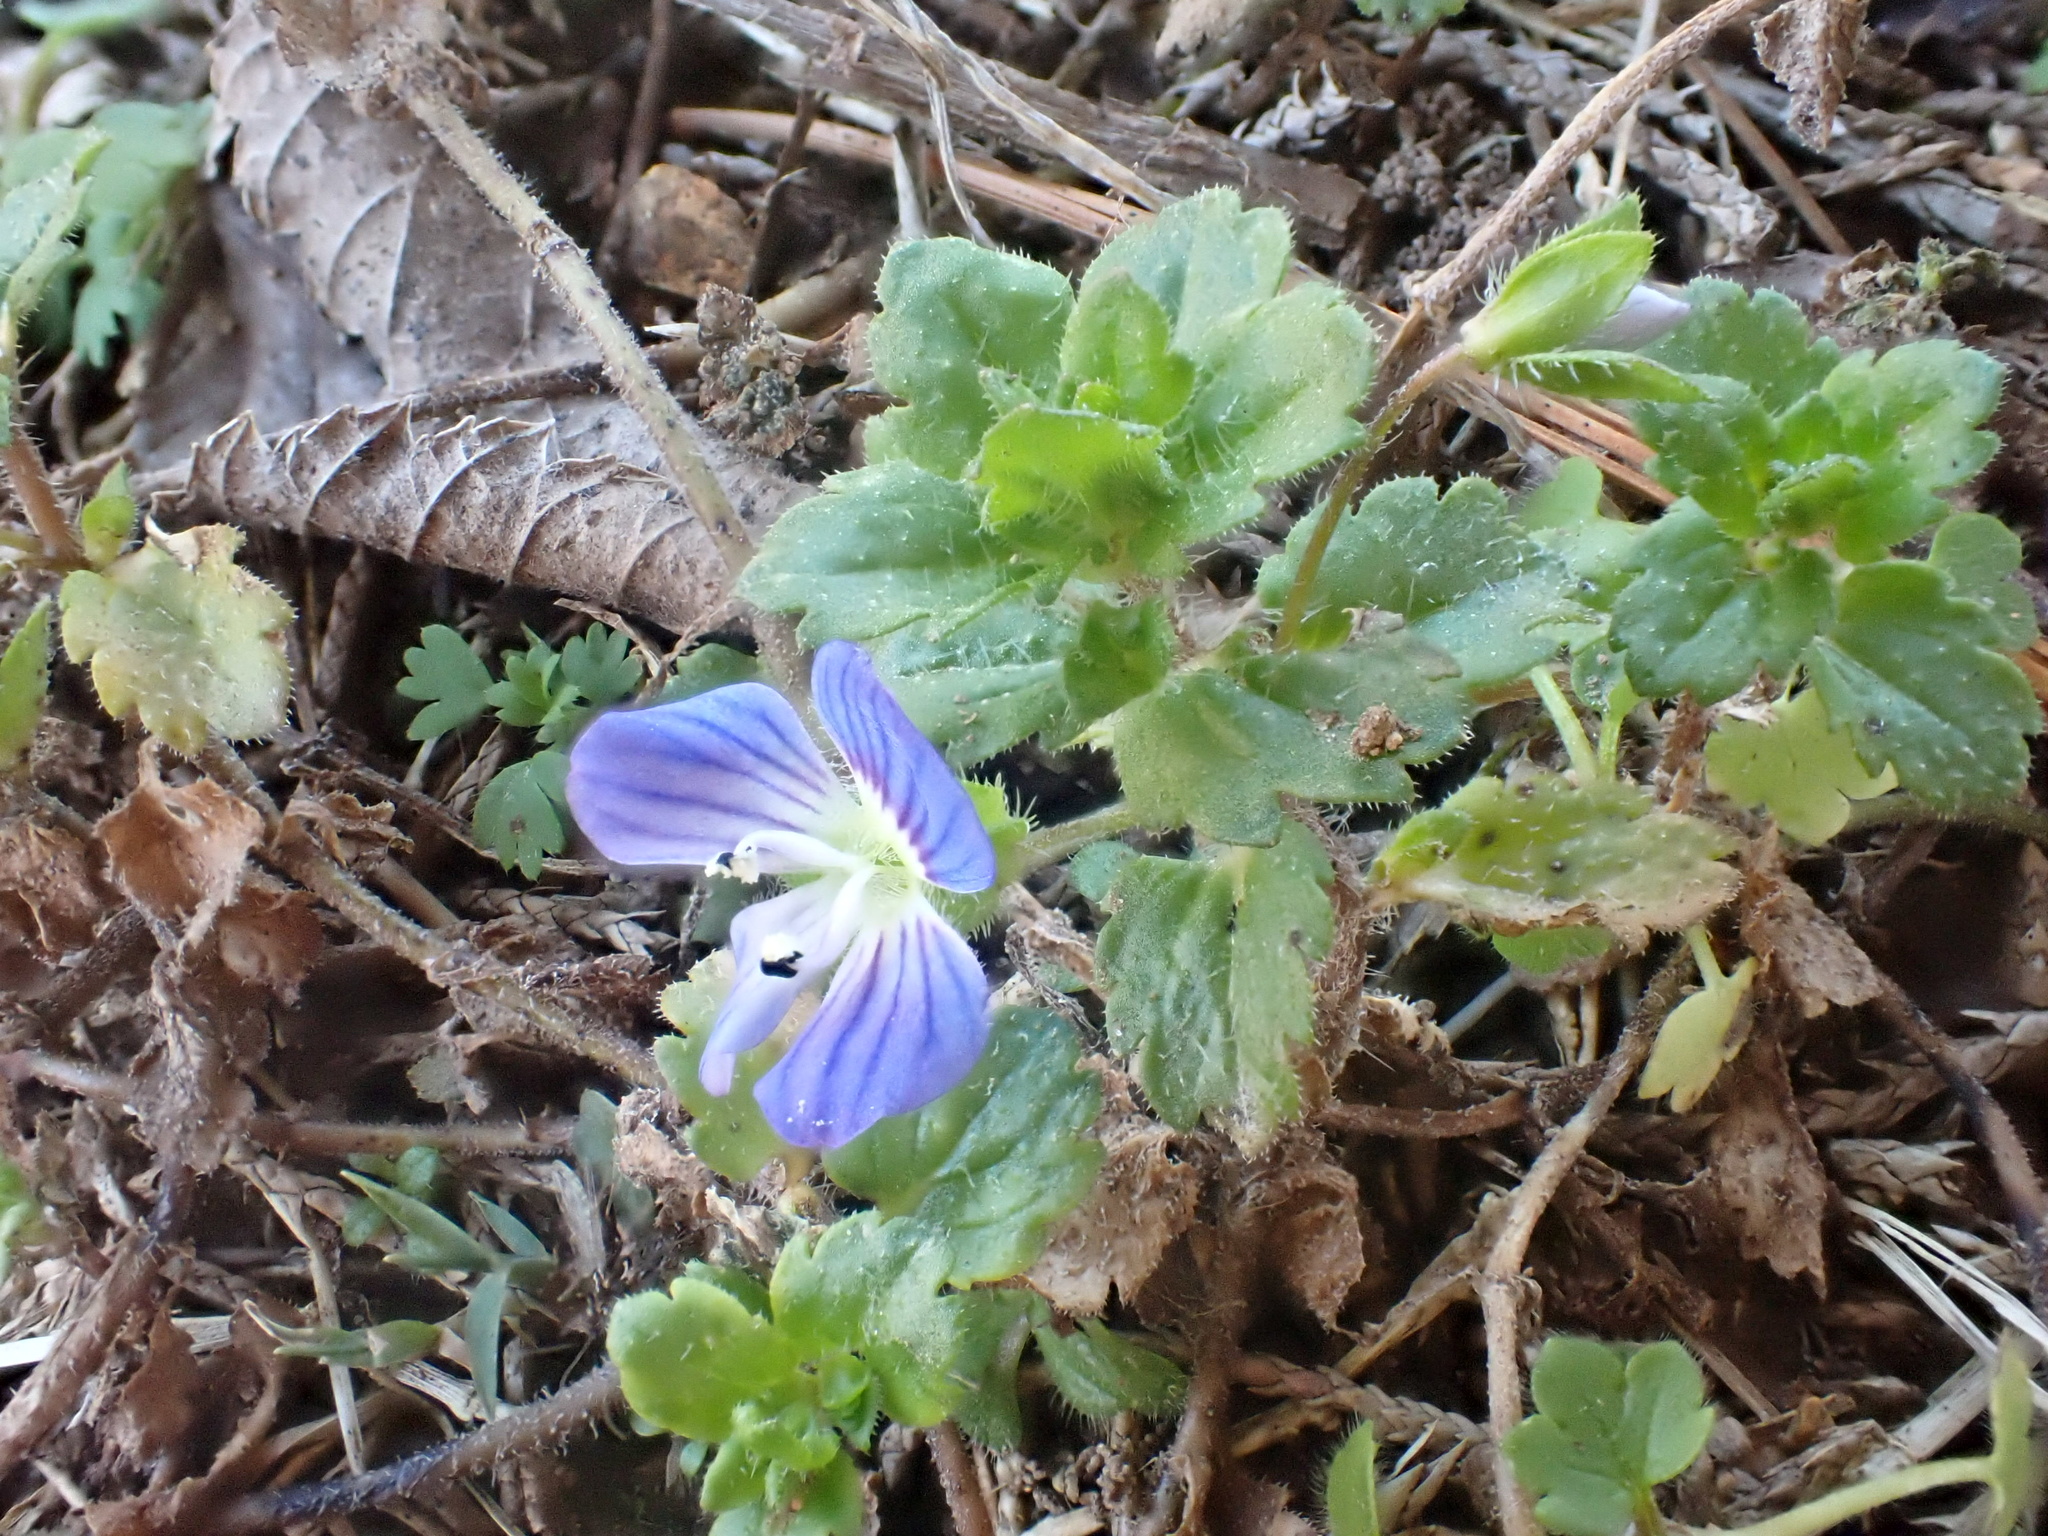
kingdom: Plantae
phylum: Tracheophyta
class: Magnoliopsida
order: Lamiales
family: Plantaginaceae
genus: Veronica
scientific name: Veronica persica
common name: Common field-speedwell
